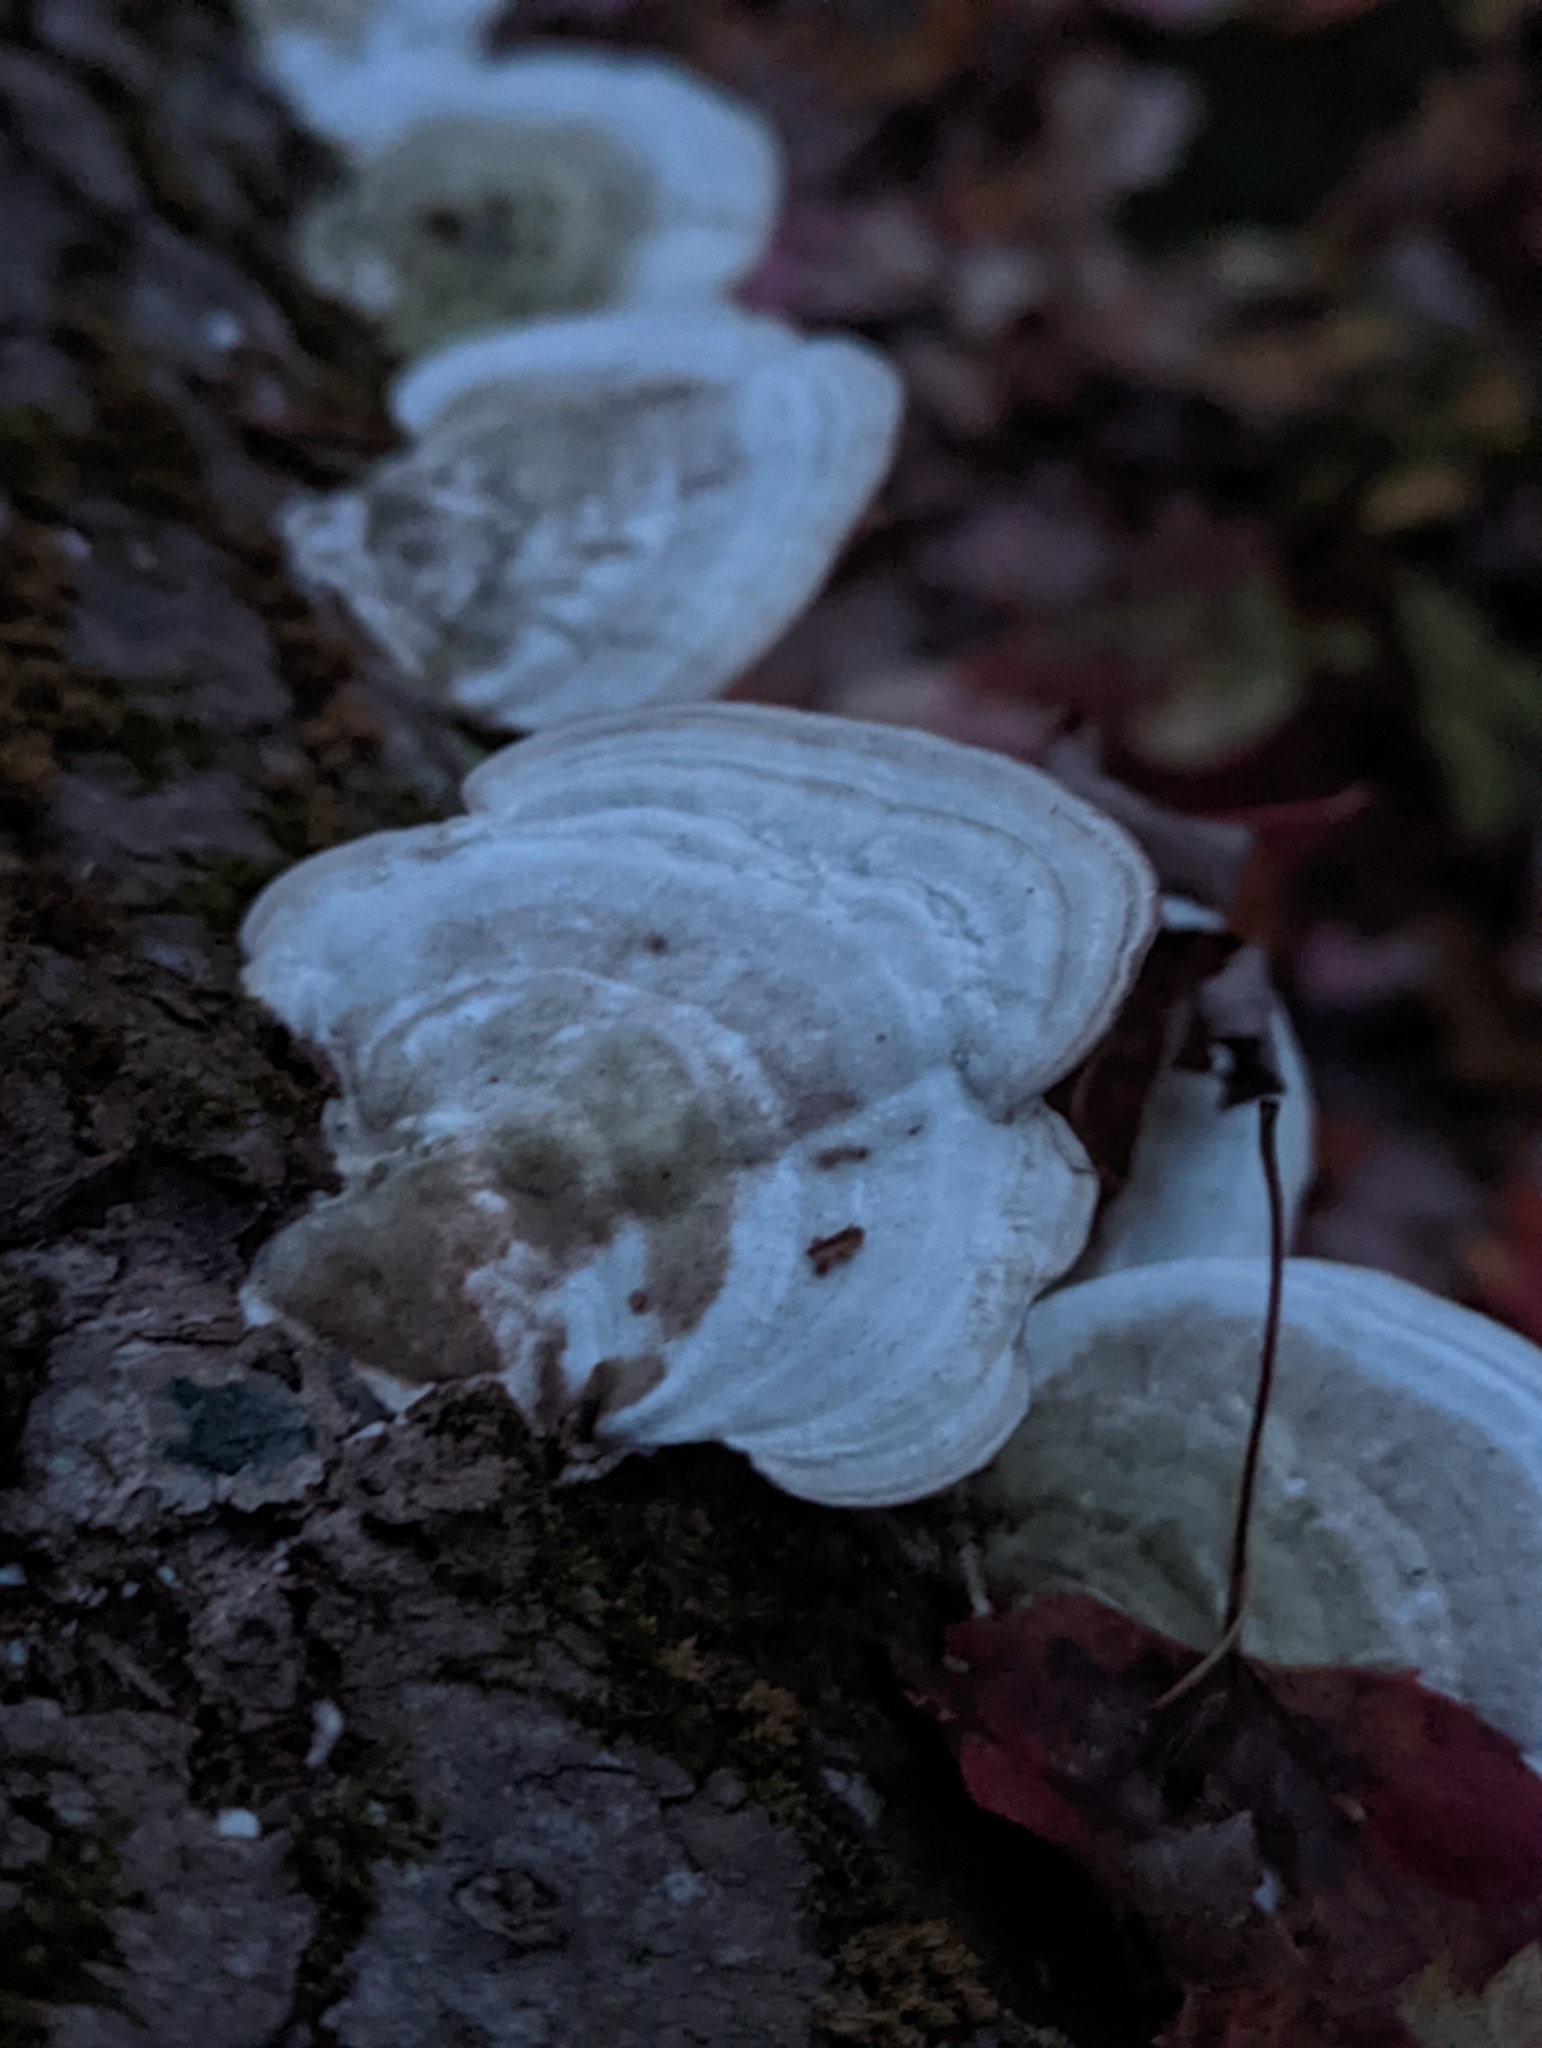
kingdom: Fungi
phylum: Basidiomycota
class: Agaricomycetes
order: Polyporales
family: Polyporaceae
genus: Trametes
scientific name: Trametes hirsuta
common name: Hairy bracket
